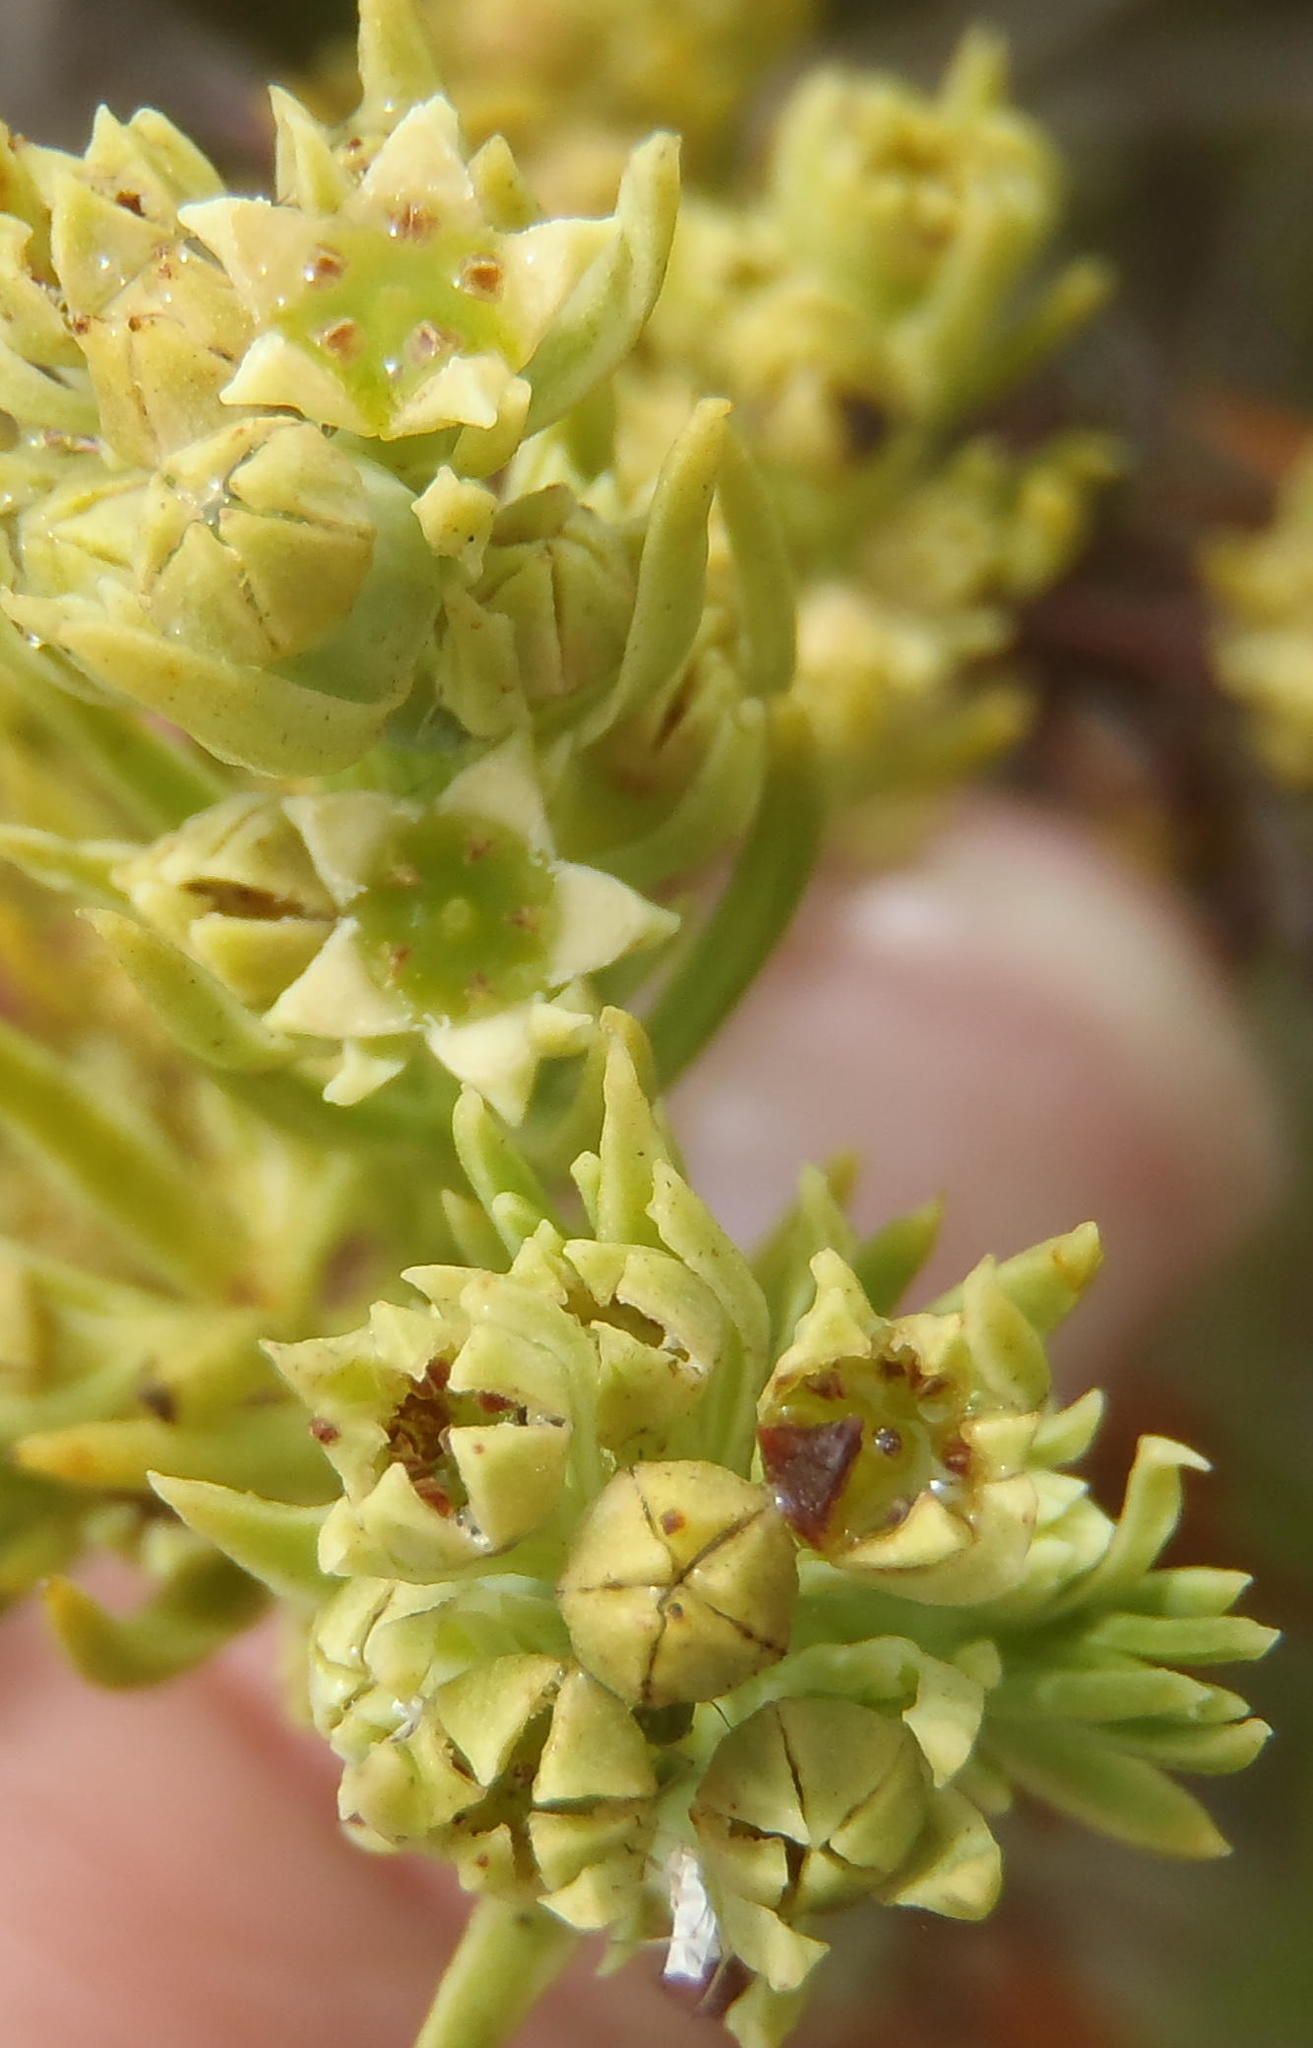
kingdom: Plantae
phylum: Tracheophyta
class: Magnoliopsida
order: Santalales
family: Thesiaceae
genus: Thesium
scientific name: Thesium foliosum
